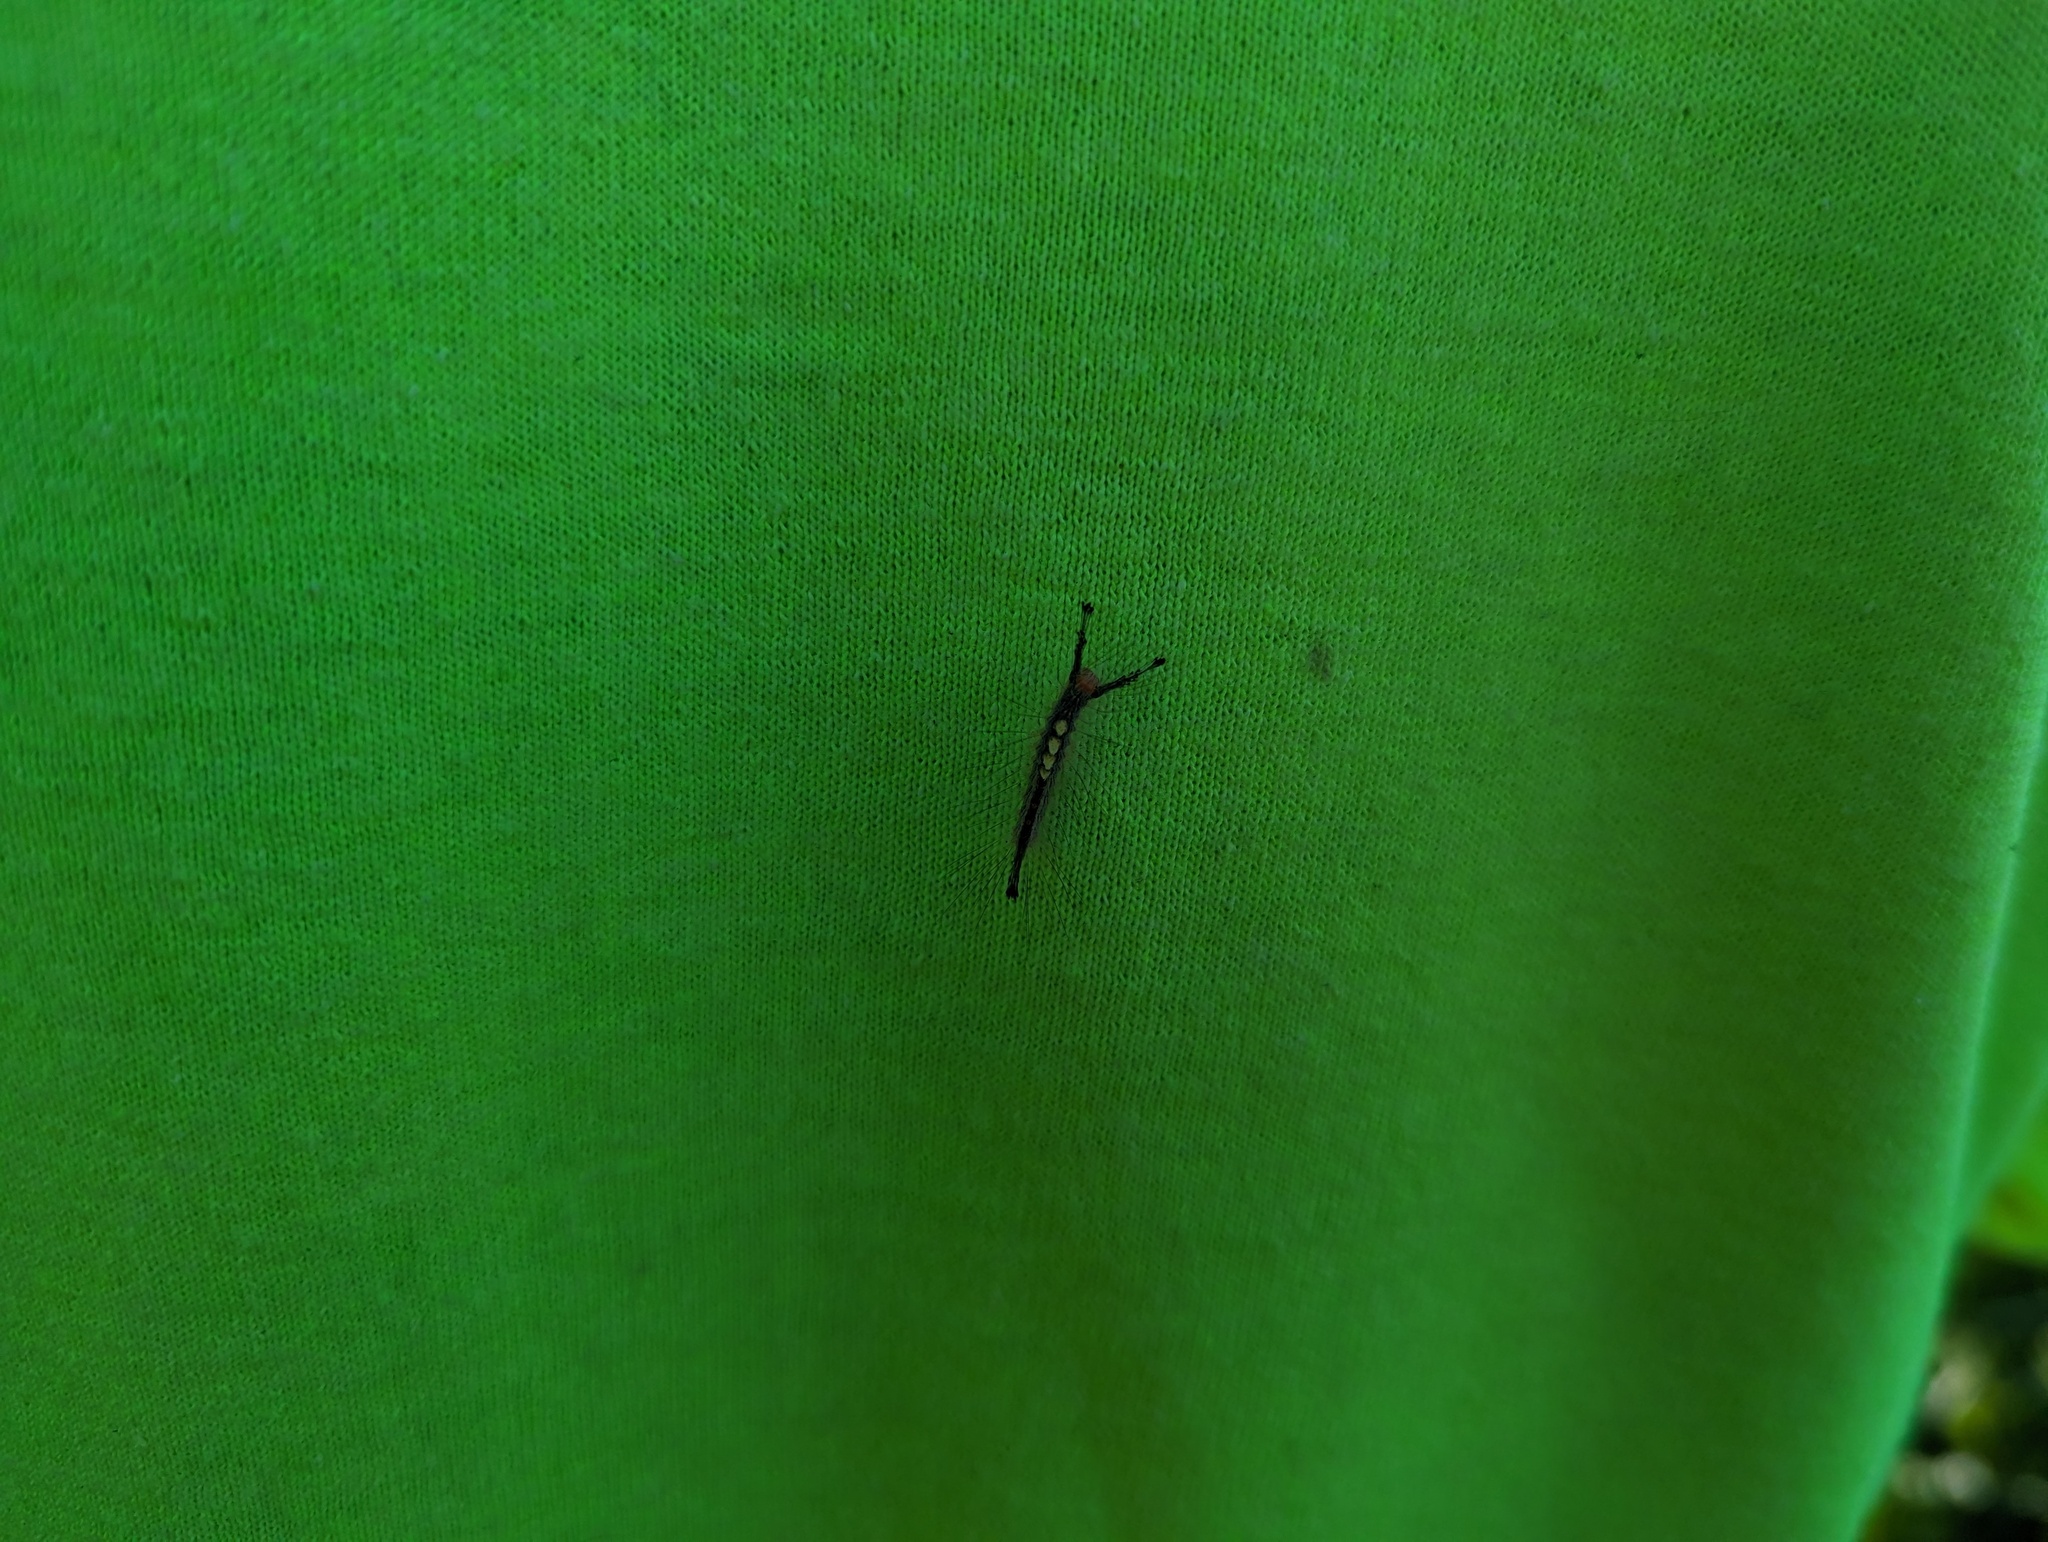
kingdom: Animalia
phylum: Arthropoda
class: Insecta
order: Lepidoptera
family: Erebidae
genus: Orgyia
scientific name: Orgyia leucostigma
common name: White-marked tussock moth
